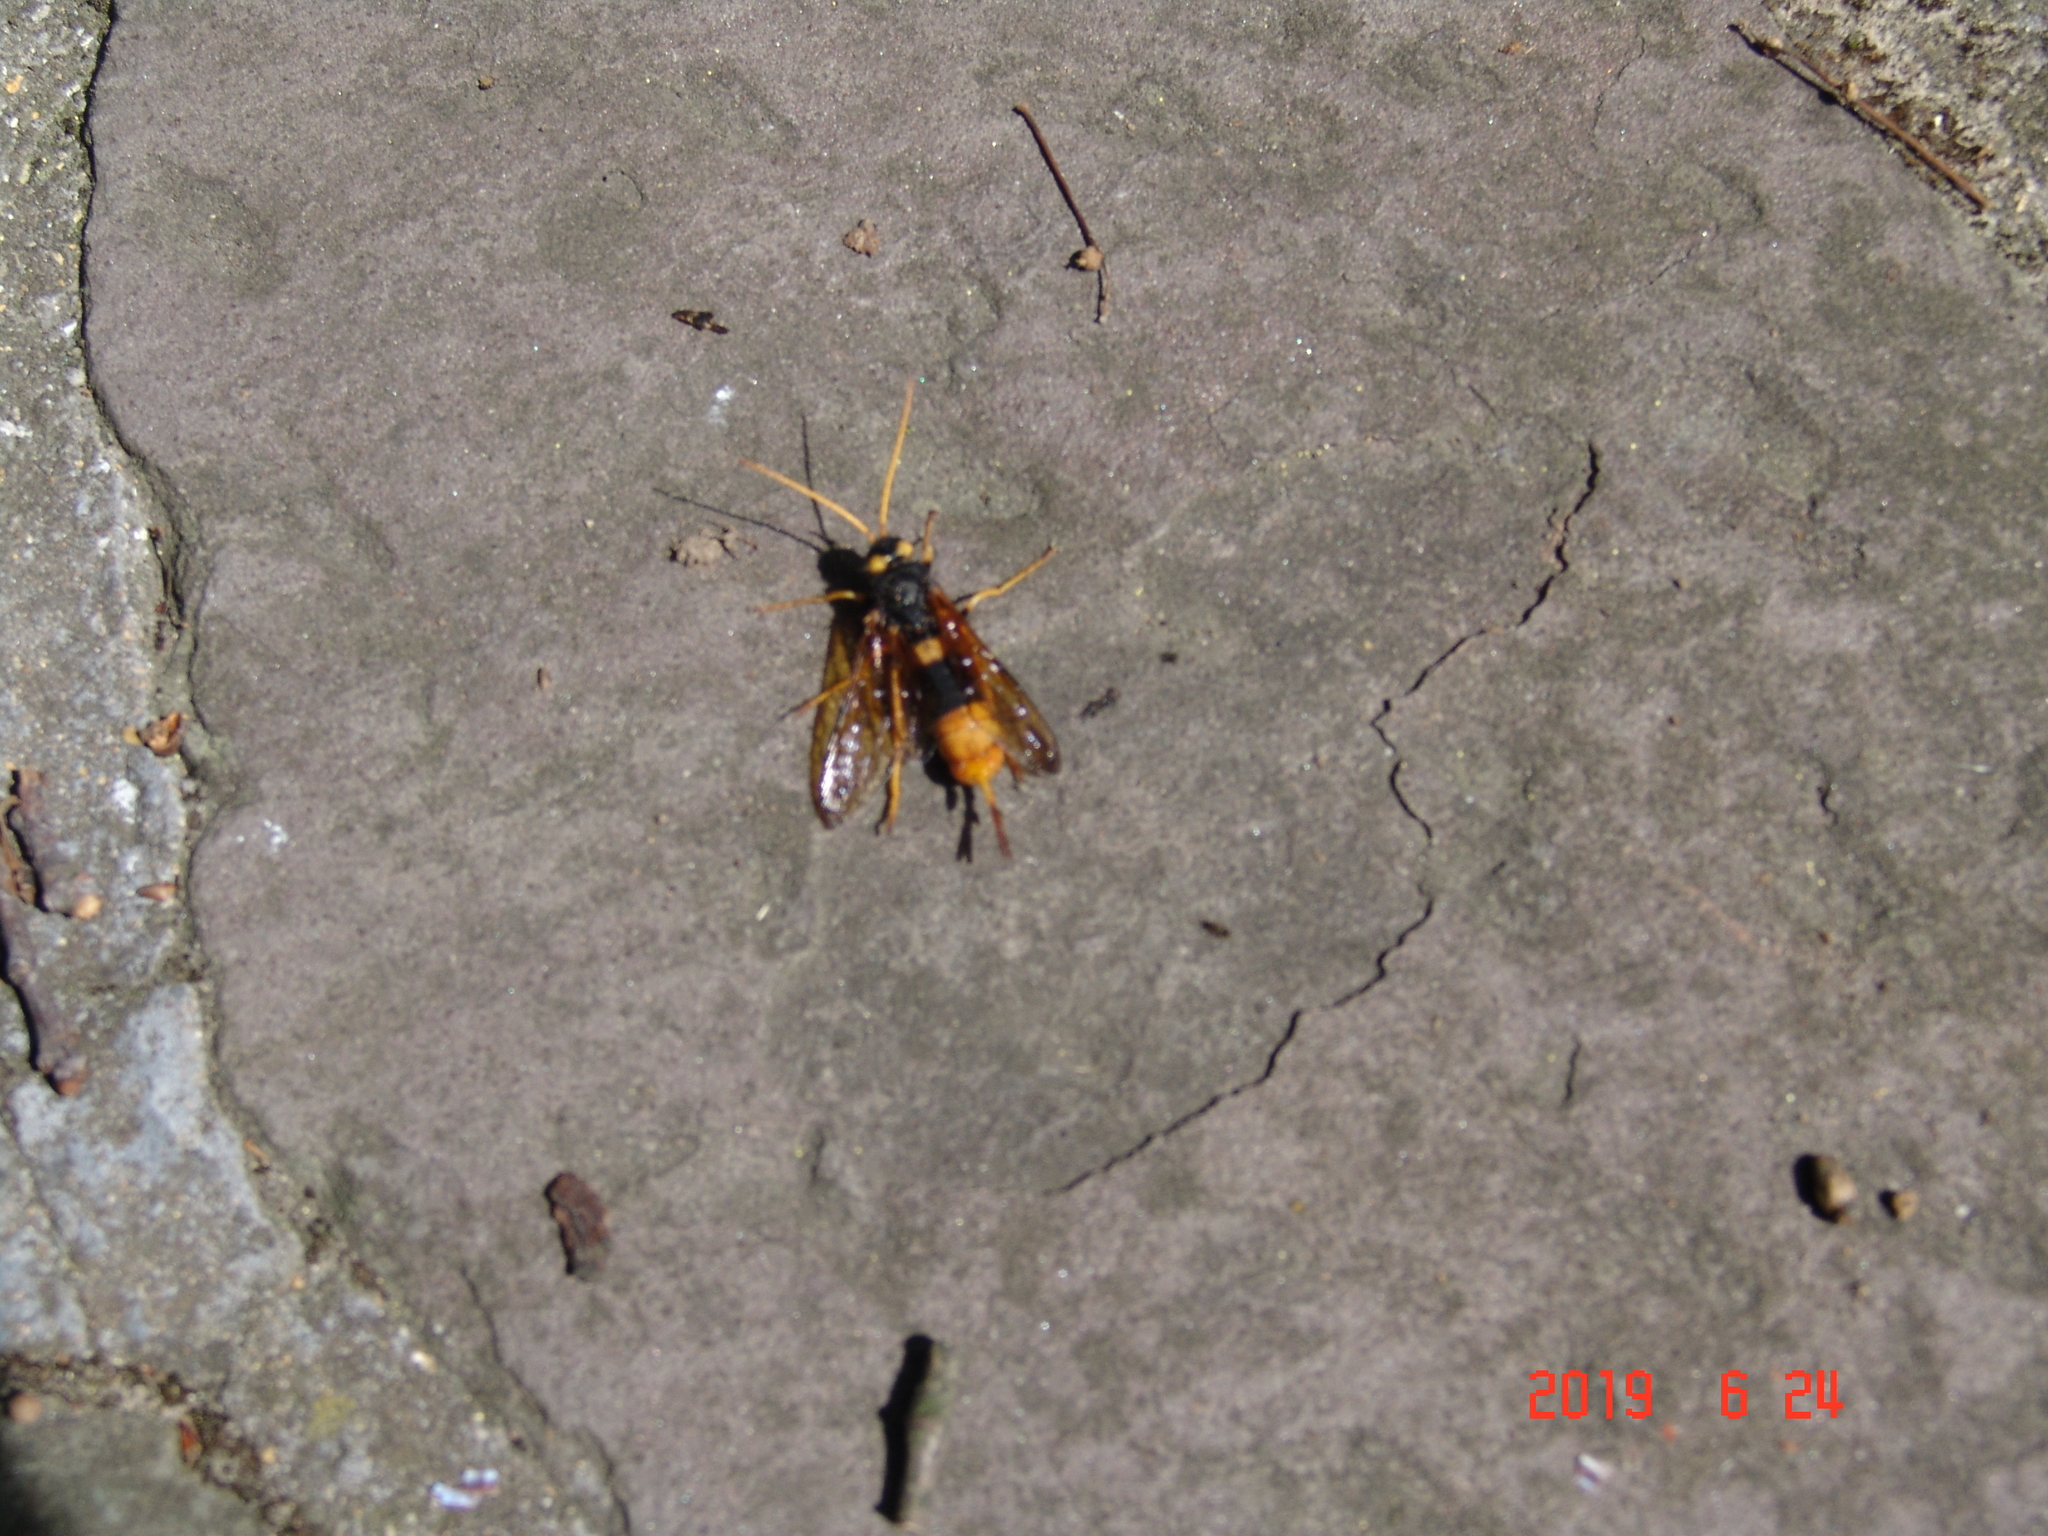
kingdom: Animalia
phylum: Arthropoda
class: Insecta
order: Hymenoptera
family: Siricidae
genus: Urocerus
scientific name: Urocerus gigas
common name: Giant woodwasp
